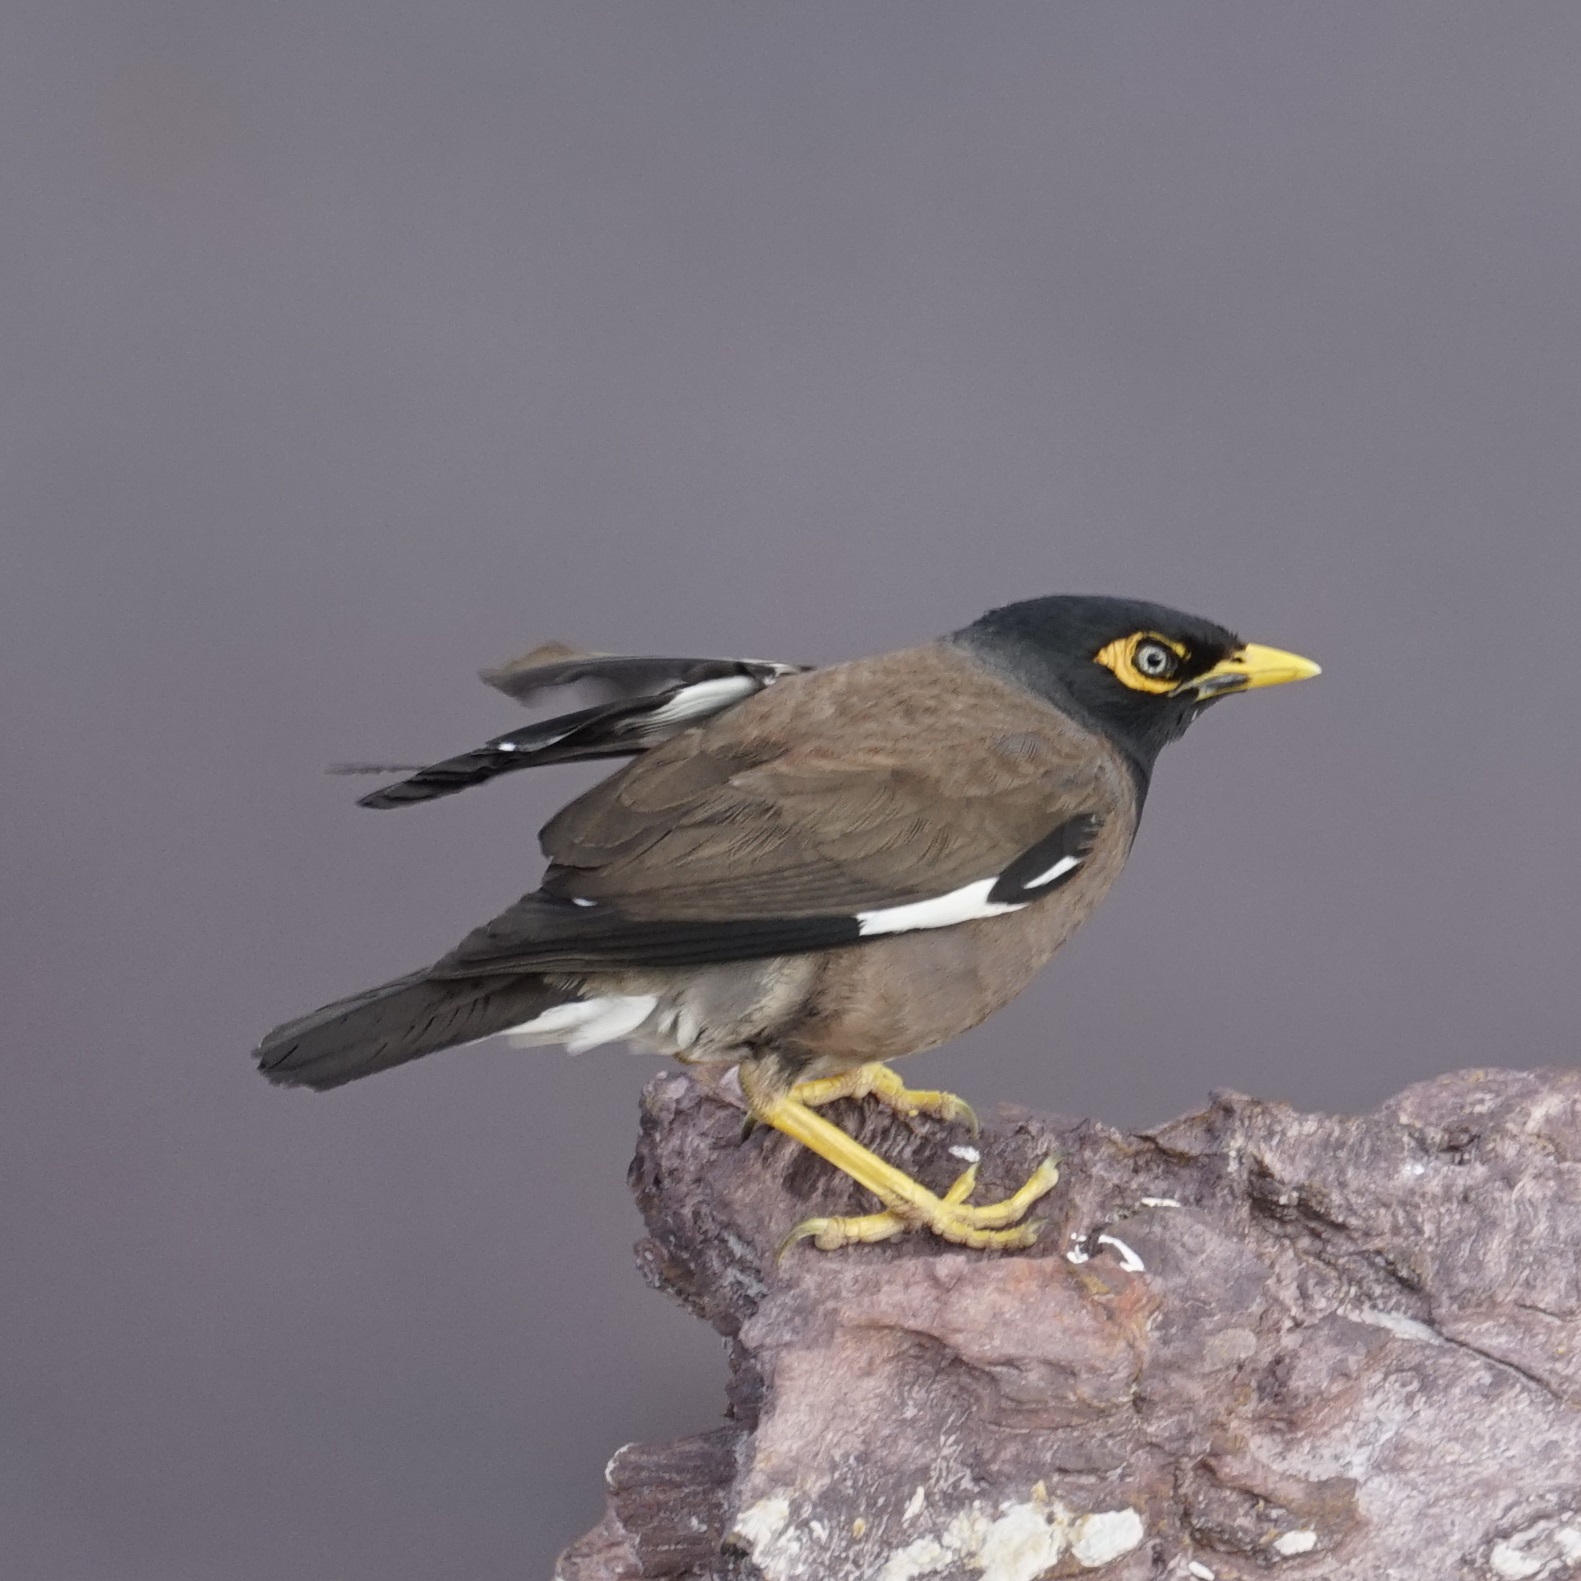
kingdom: Animalia
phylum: Chordata
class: Aves
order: Passeriformes
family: Sturnidae
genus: Acridotheres
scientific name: Acridotheres tristis
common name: Common myna
